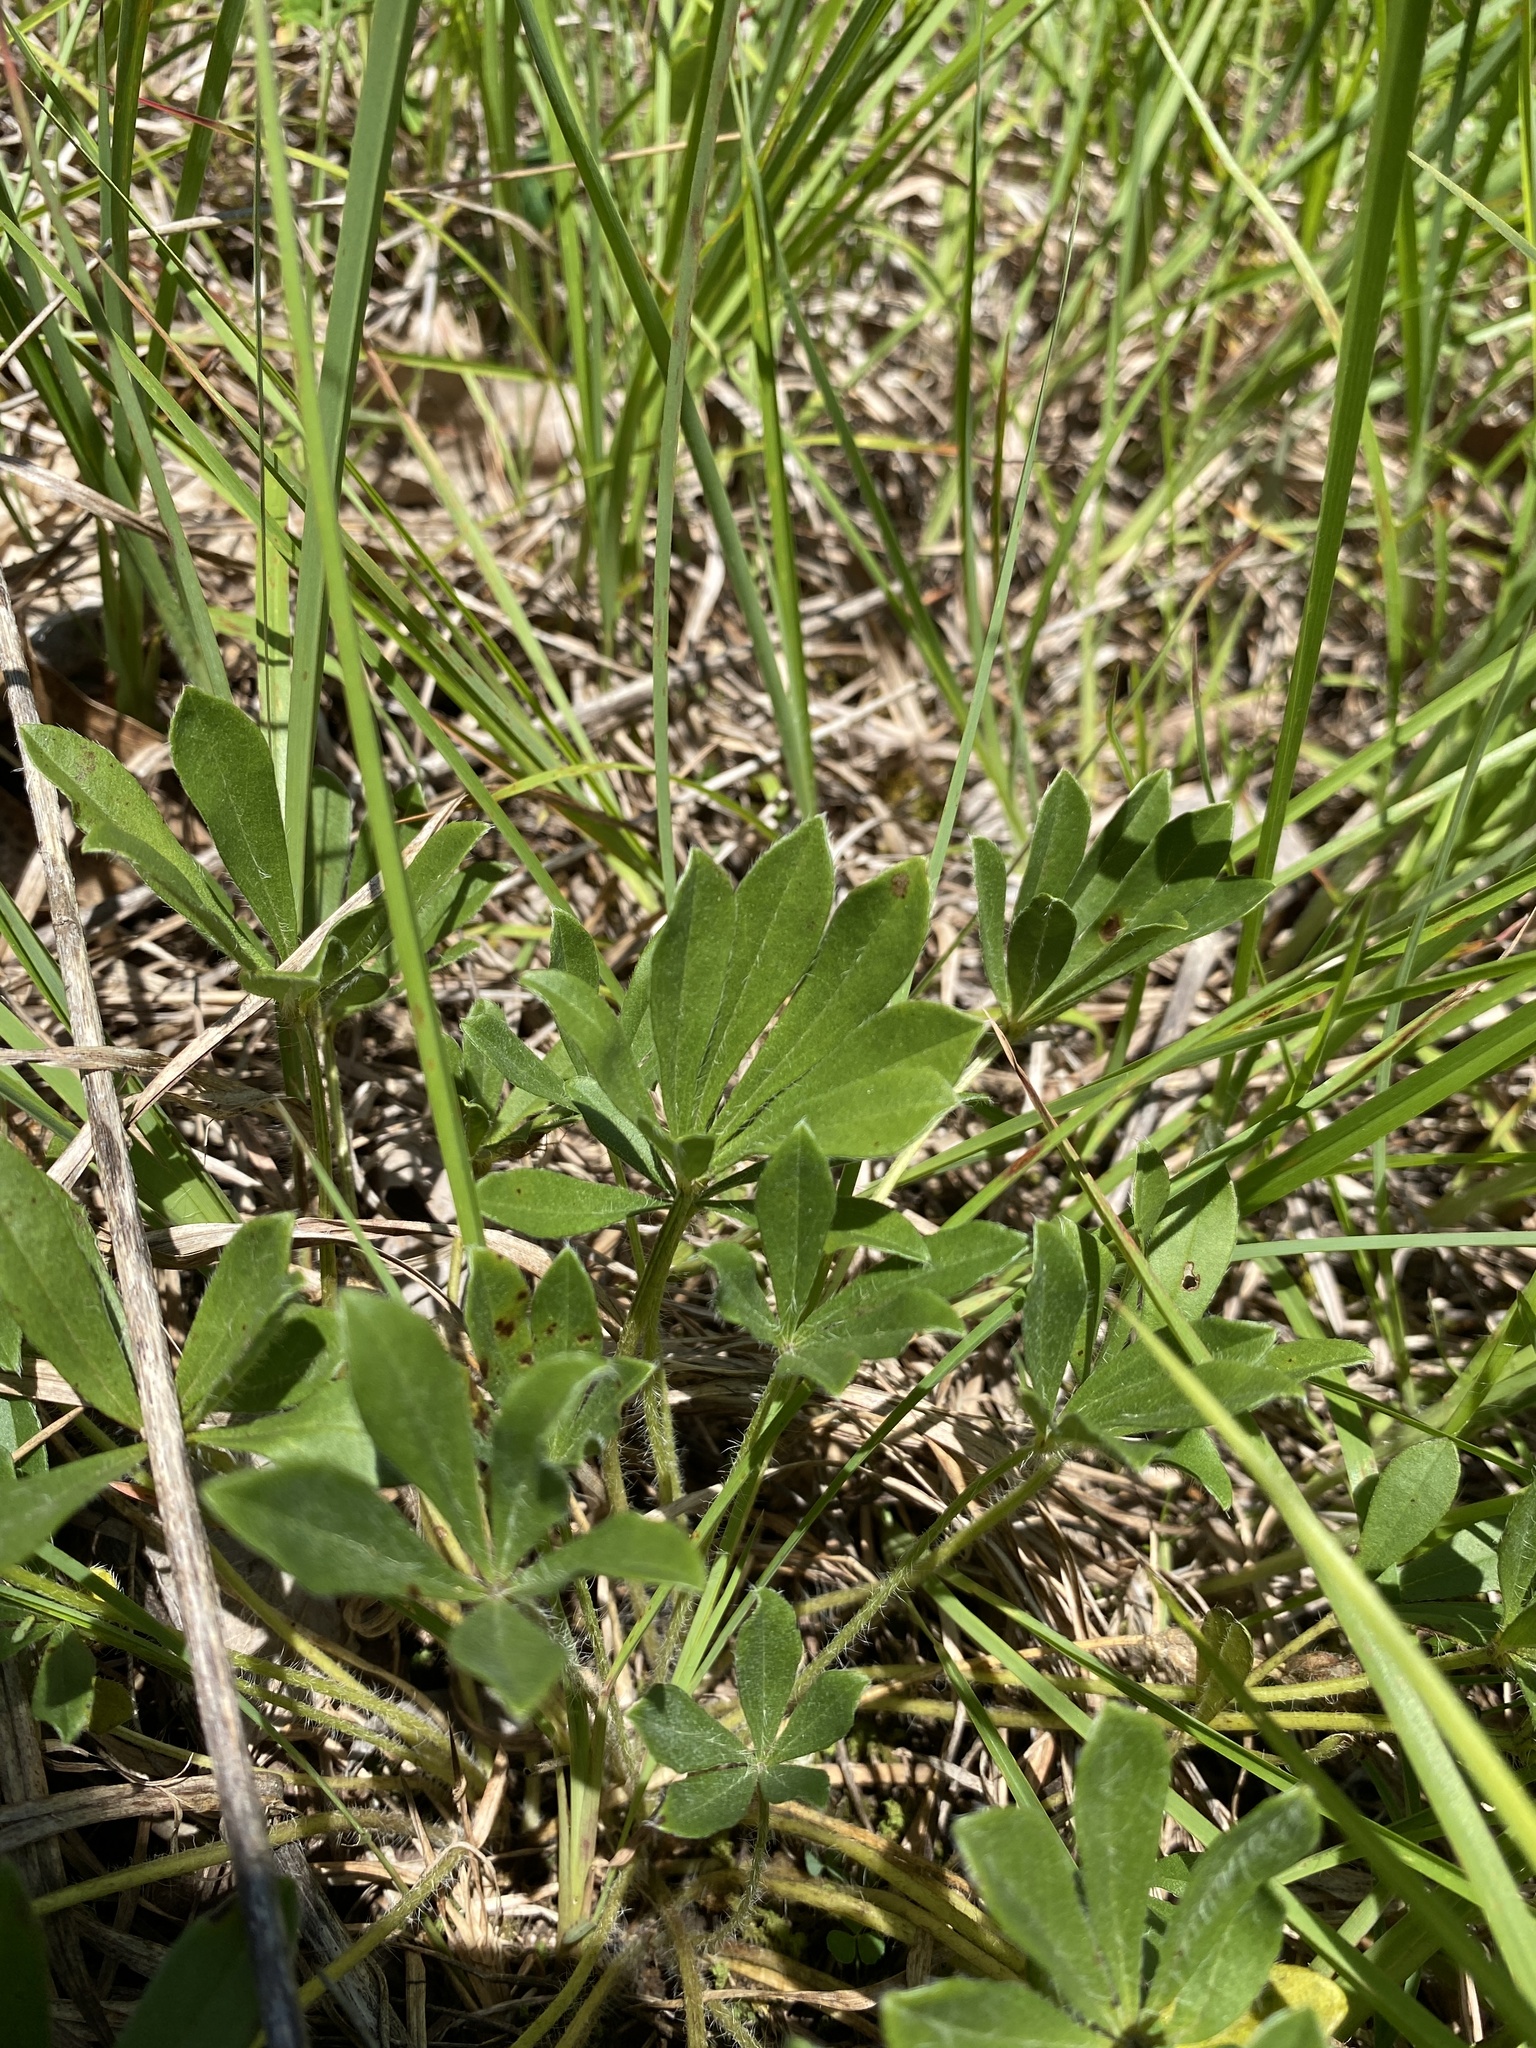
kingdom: Plantae
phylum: Tracheophyta
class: Magnoliopsida
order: Fabales
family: Fabaceae
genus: Pediomelum
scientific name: Pediomelum subacaule
